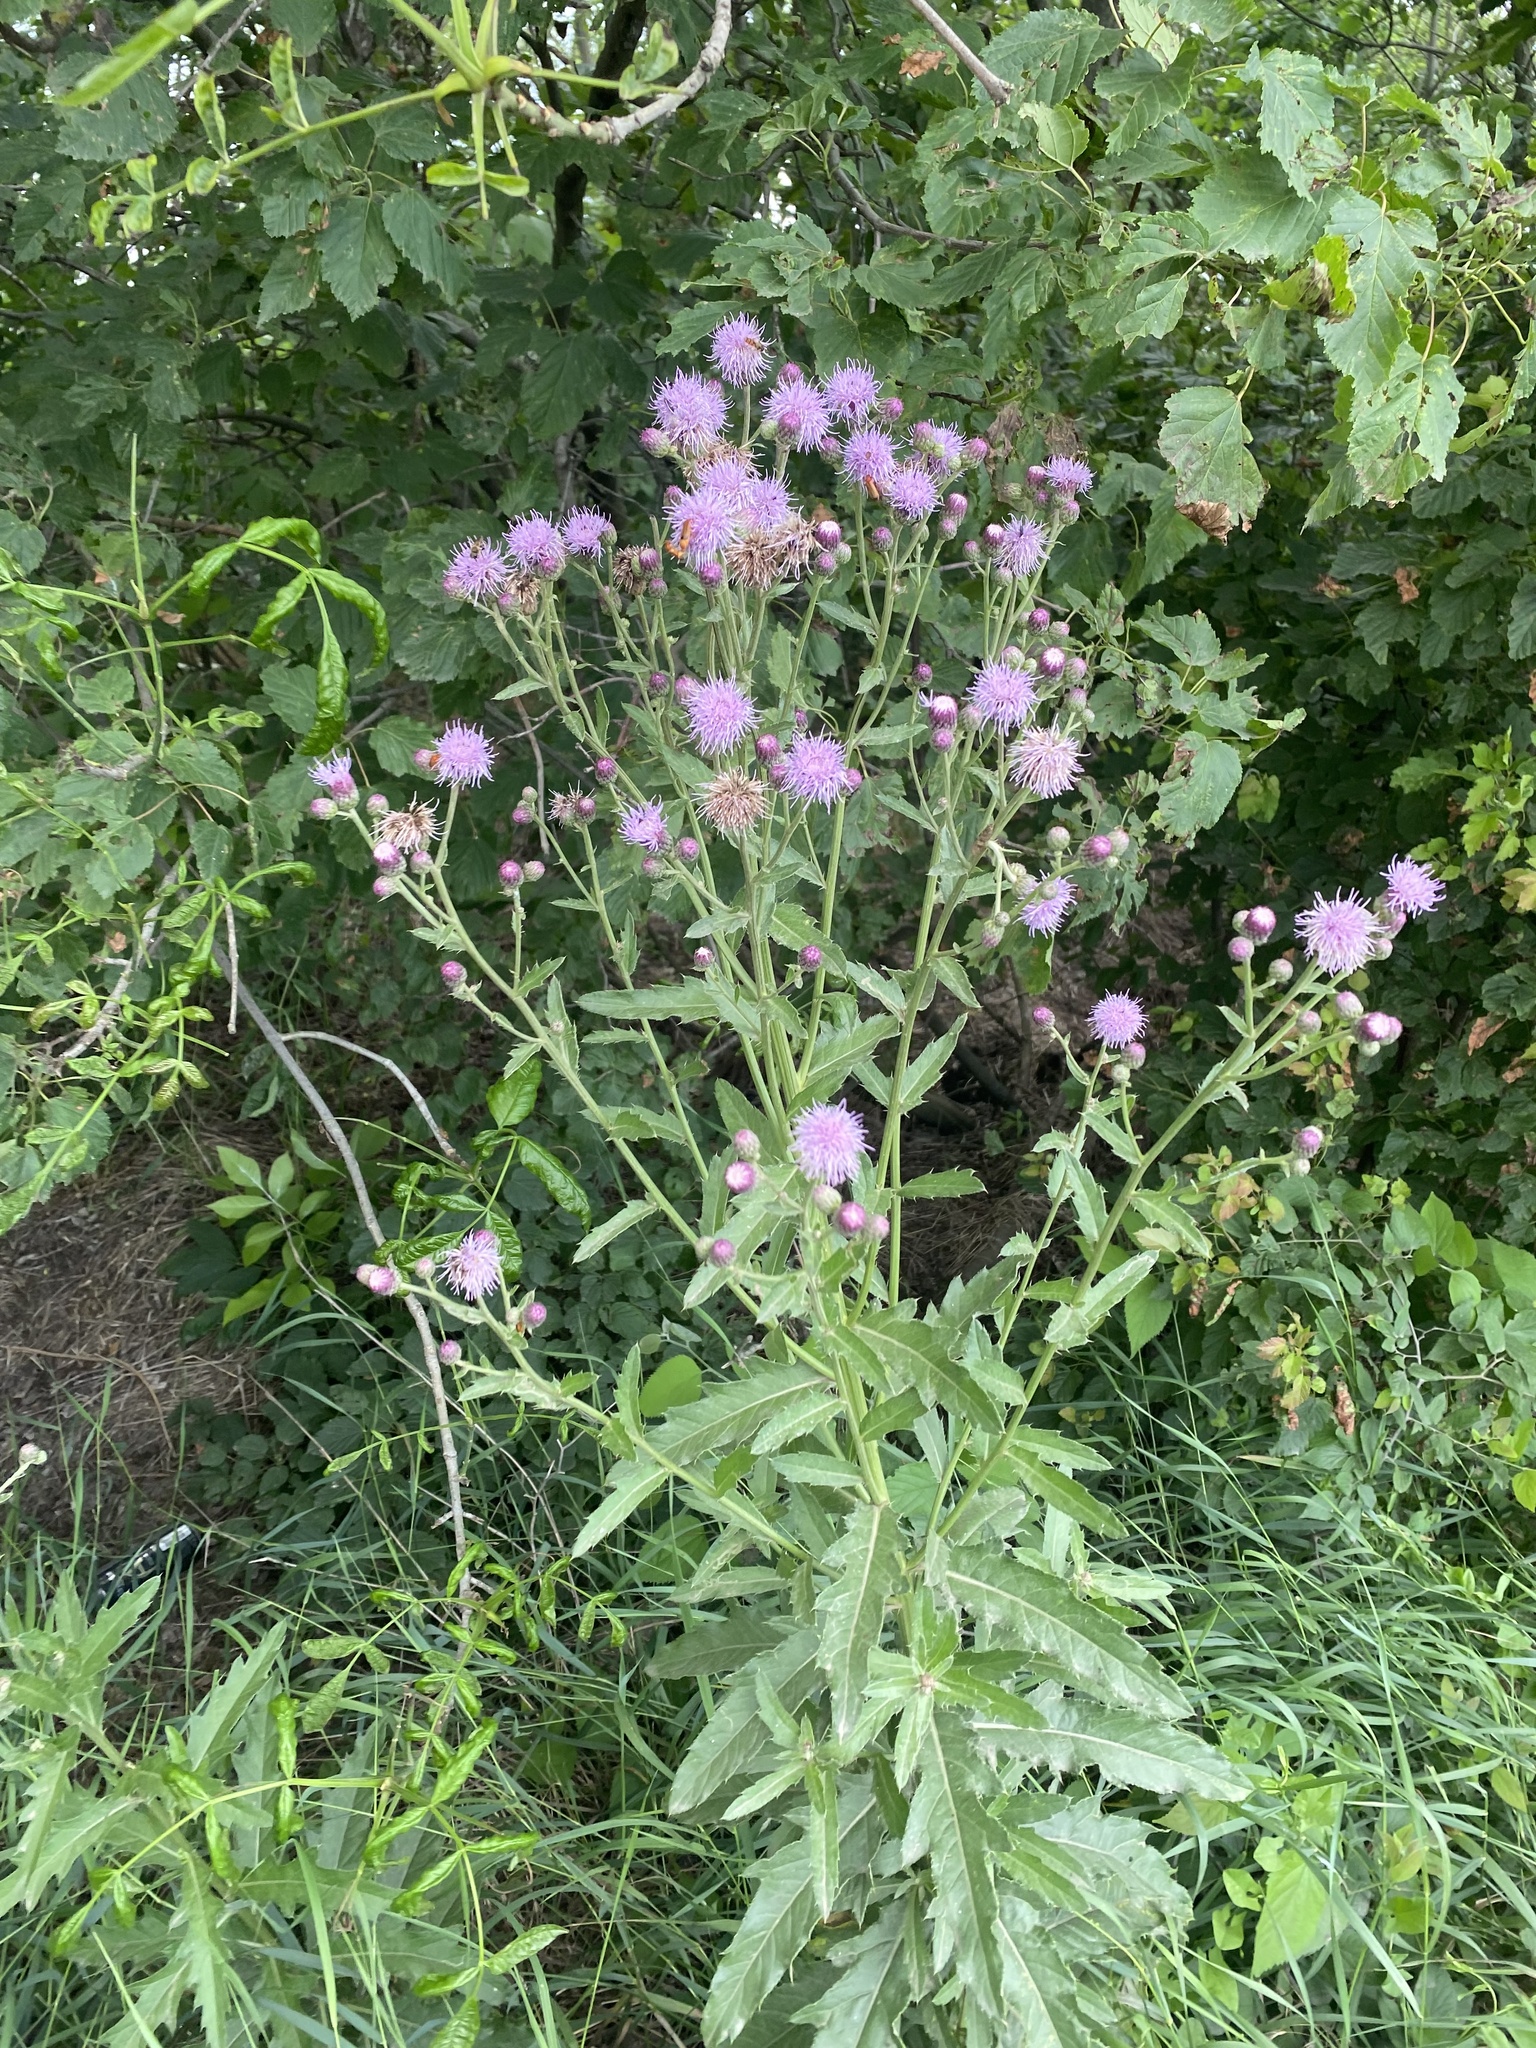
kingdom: Plantae
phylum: Tracheophyta
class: Magnoliopsida
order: Asterales
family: Asteraceae
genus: Cirsium
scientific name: Cirsium arvense
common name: Creeping thistle
